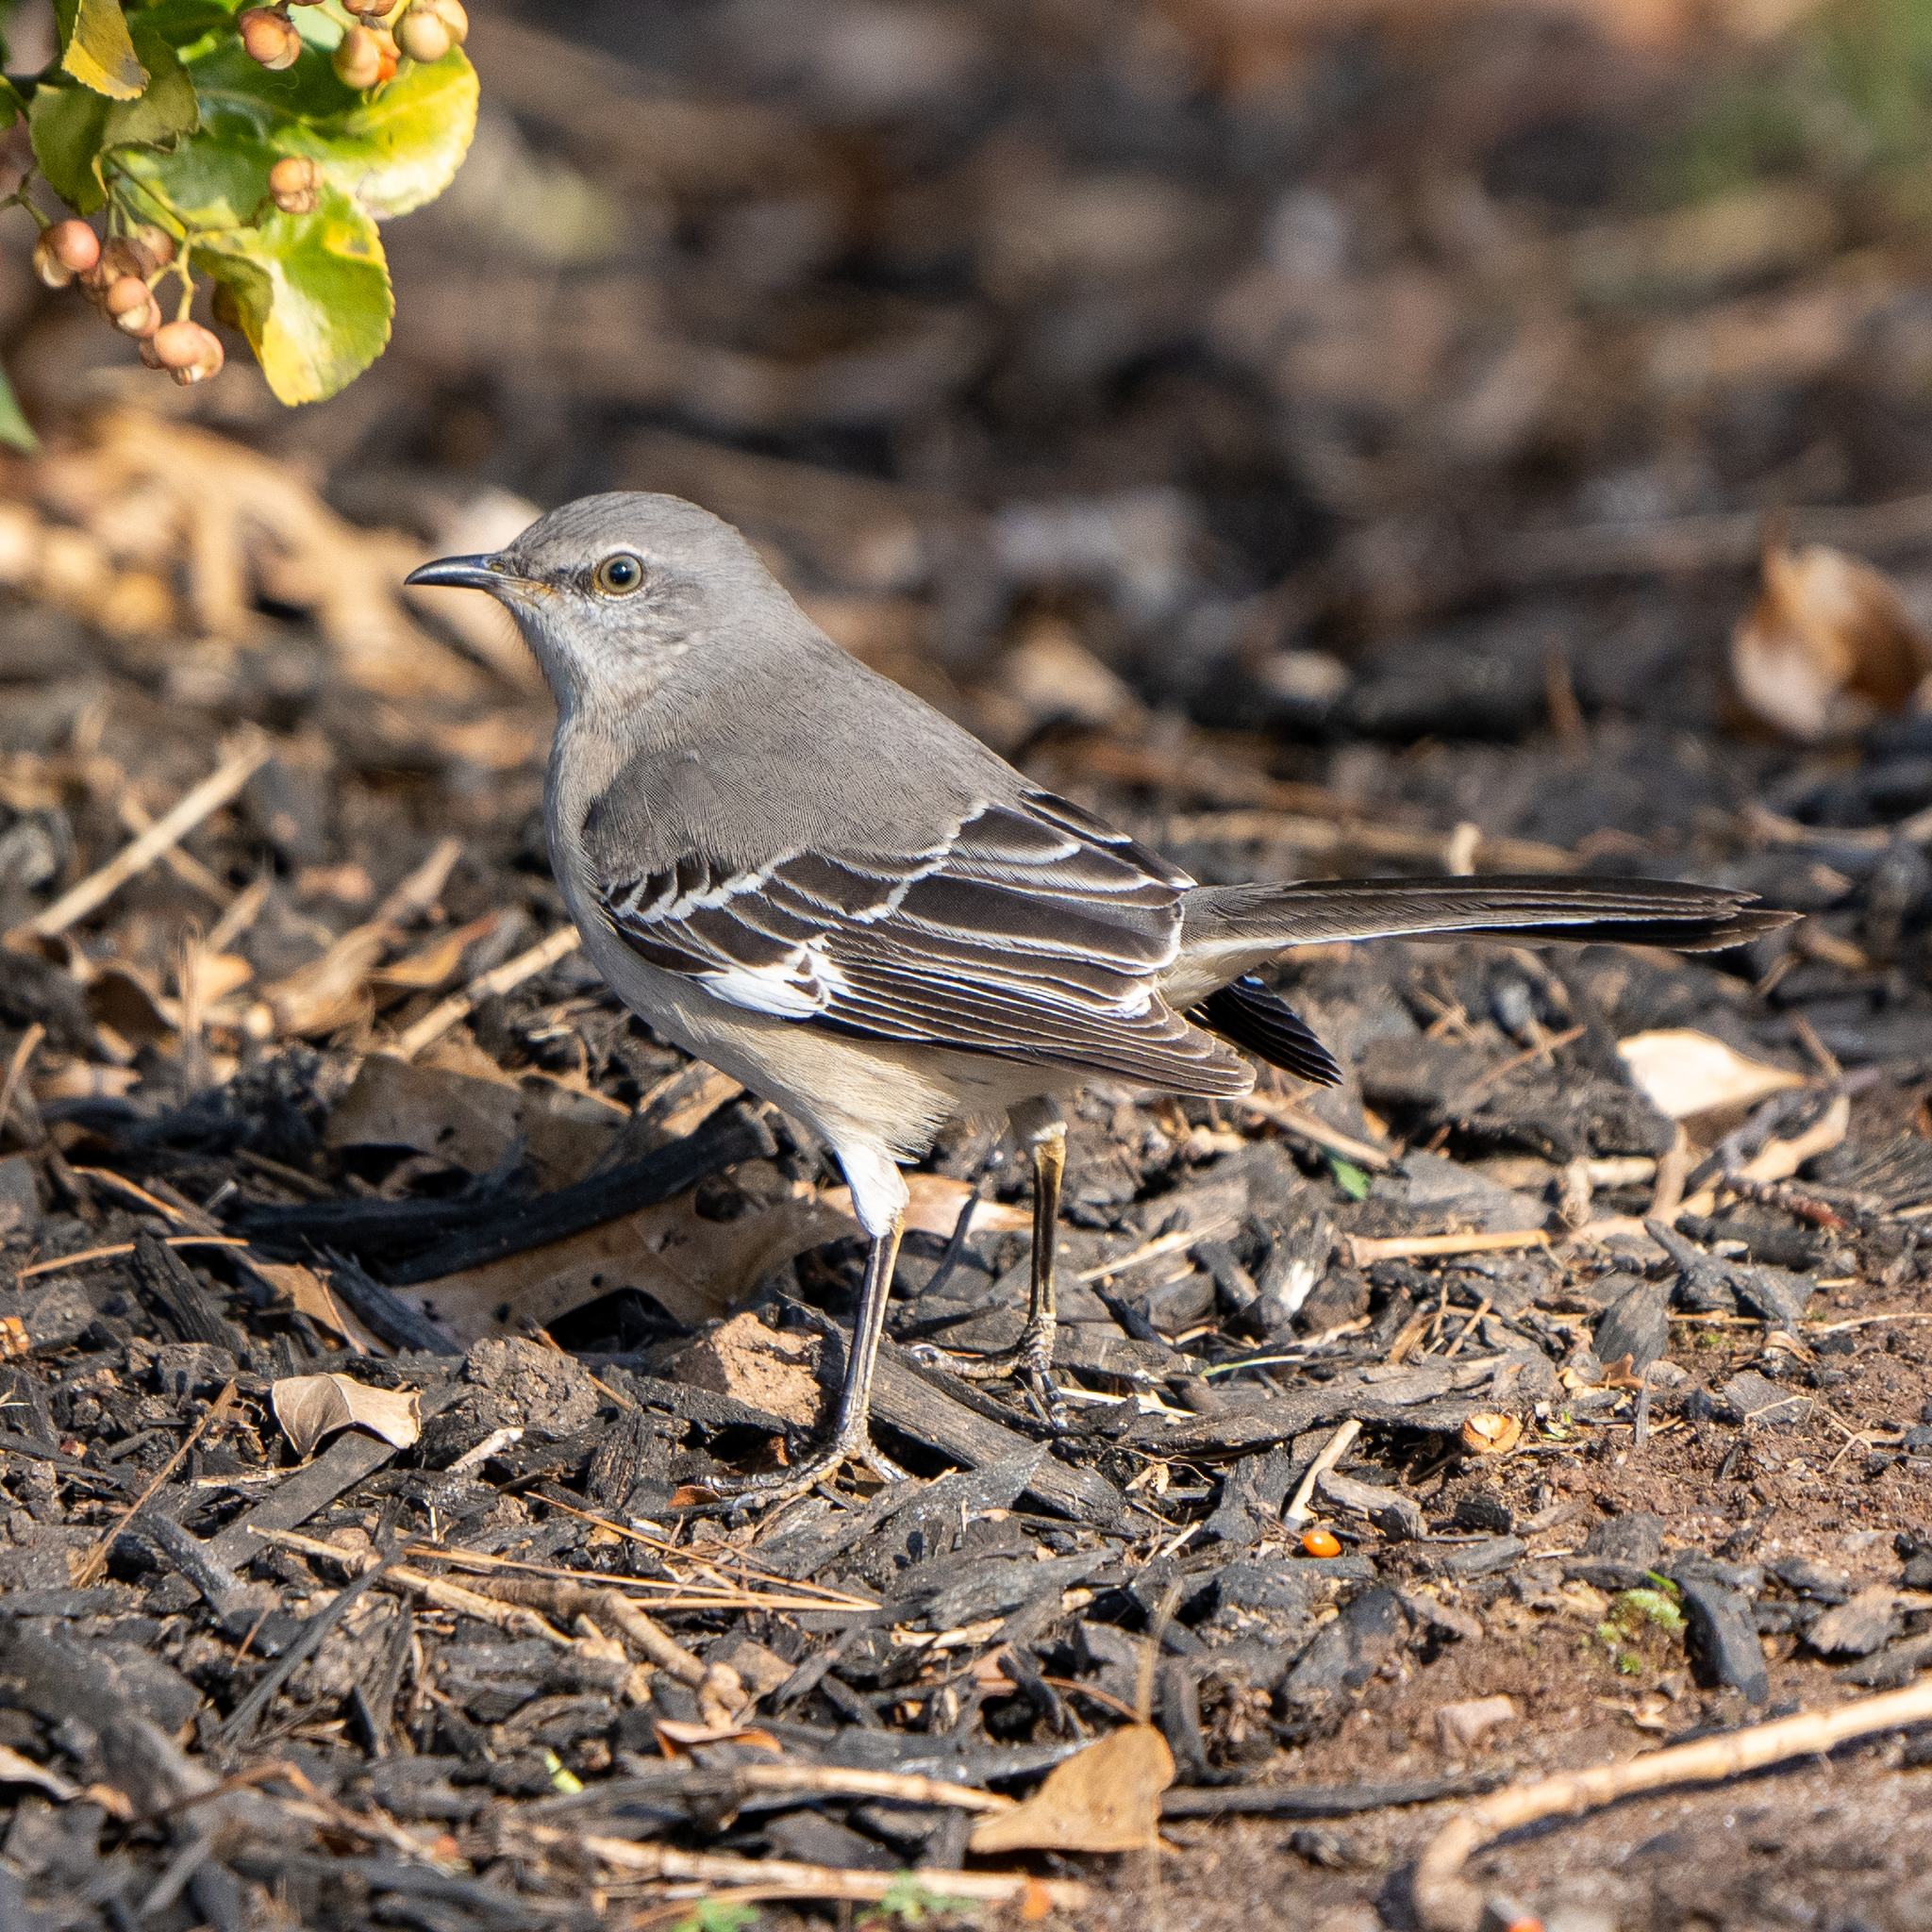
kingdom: Animalia
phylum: Chordata
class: Aves
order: Passeriformes
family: Mimidae
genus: Mimus
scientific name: Mimus polyglottos
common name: Northern mockingbird
